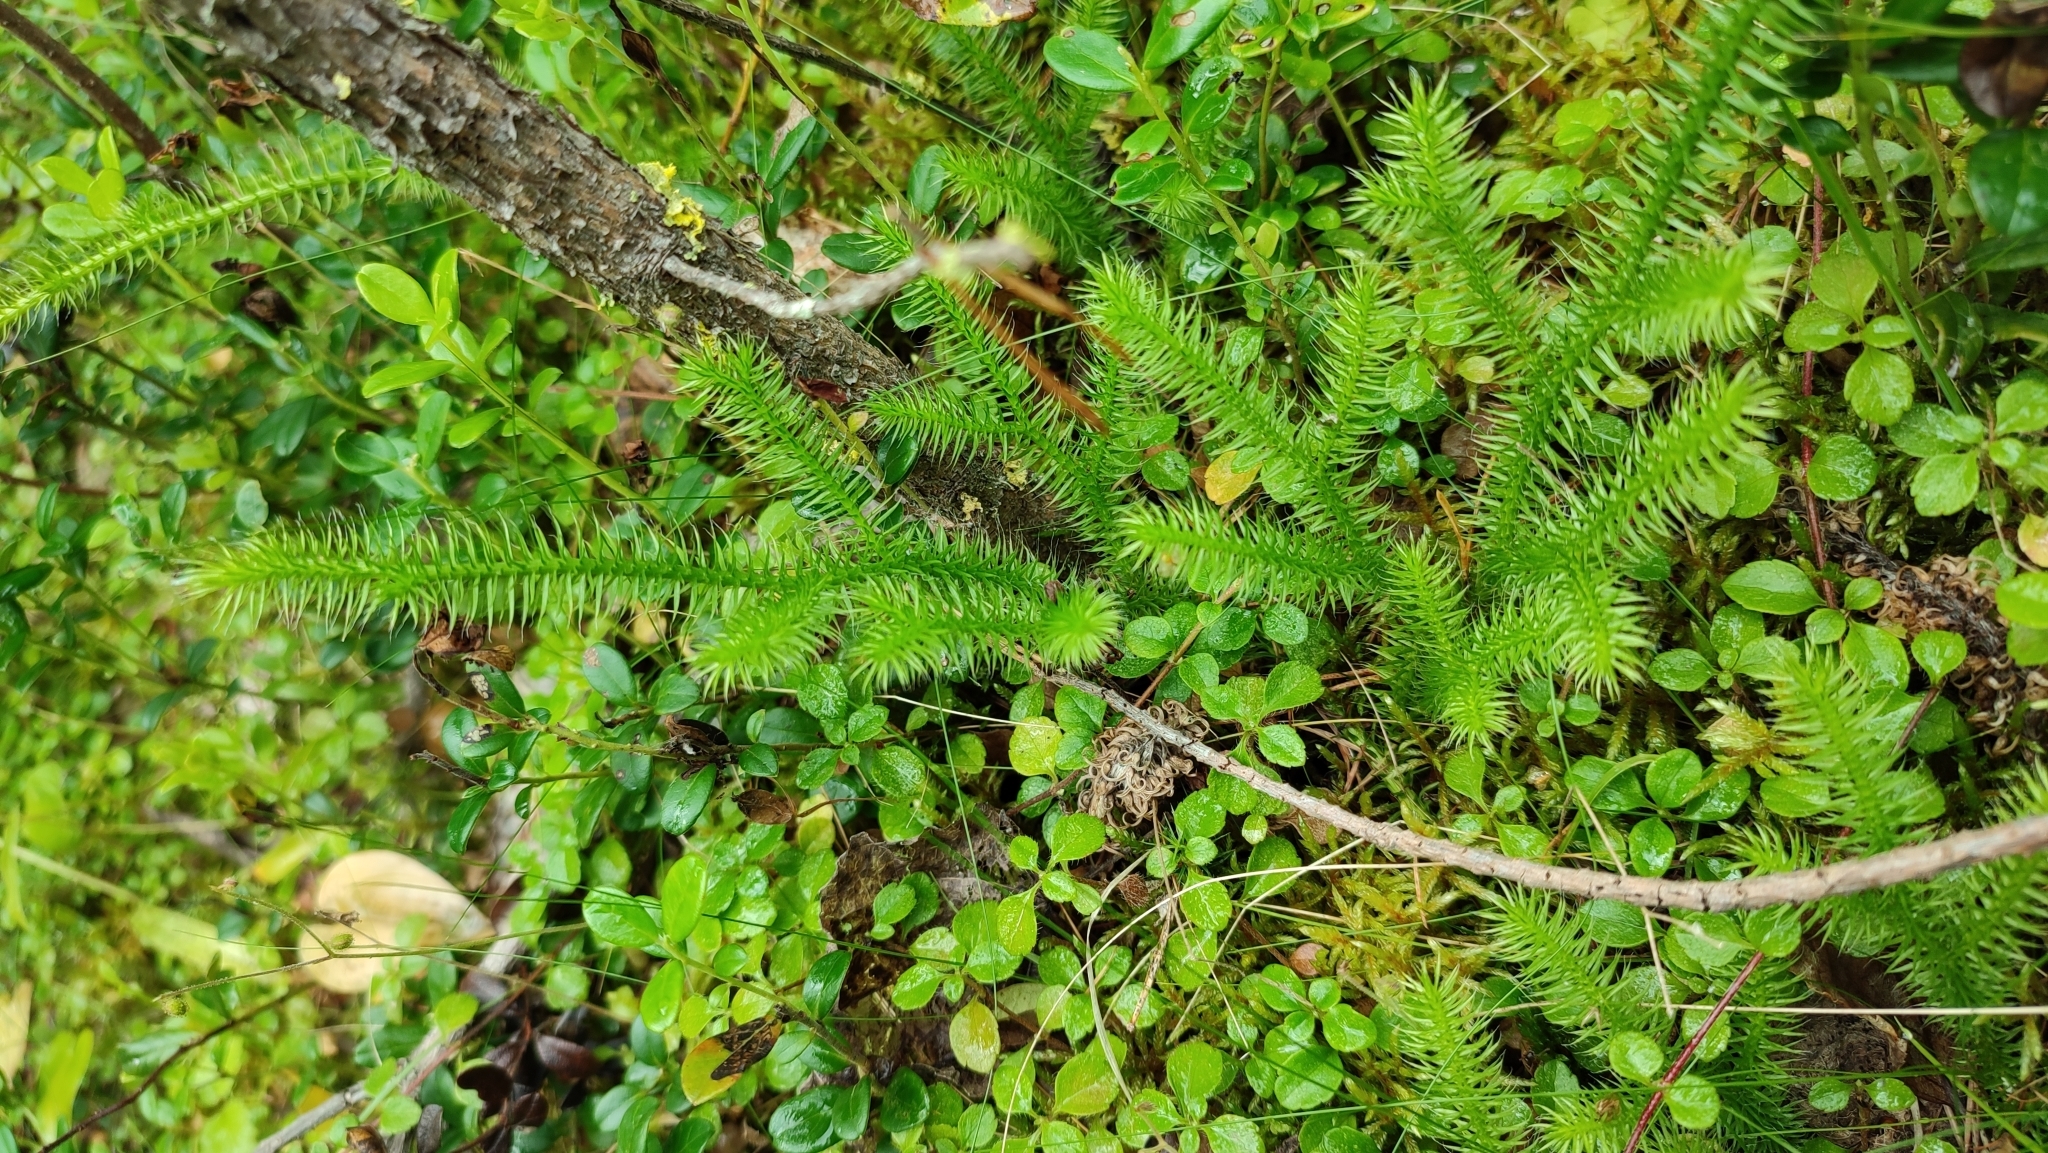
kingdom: Plantae
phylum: Tracheophyta
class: Lycopodiopsida
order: Lycopodiales
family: Lycopodiaceae
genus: Lycopodium
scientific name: Lycopodium clavatum
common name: Stag's-horn clubmoss
